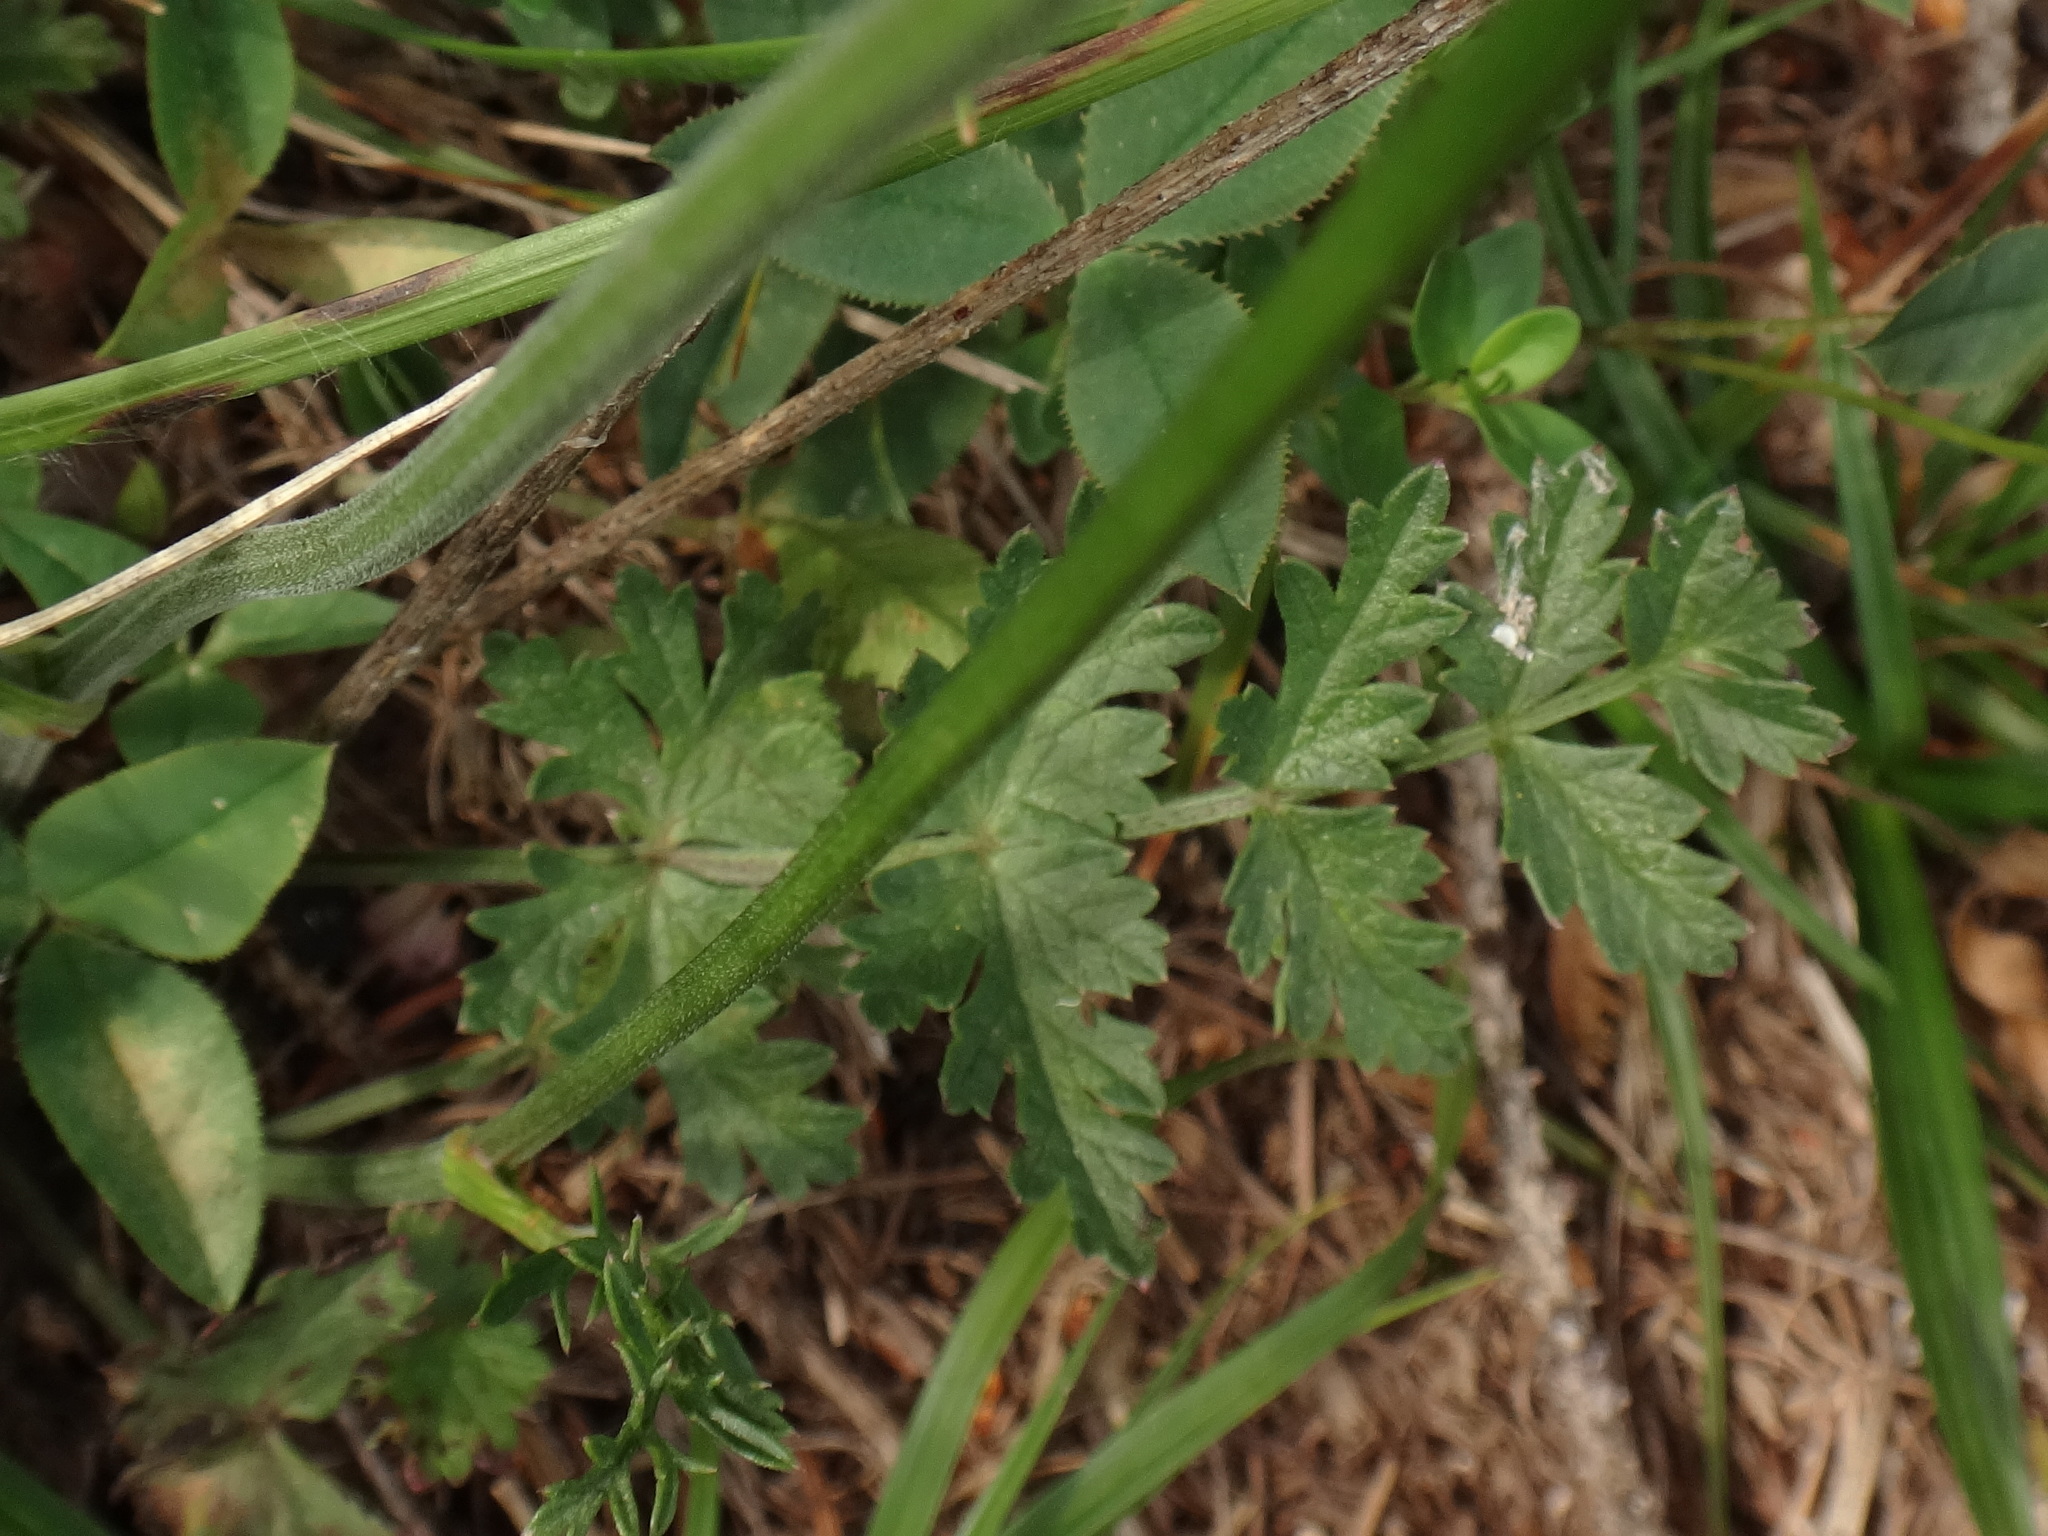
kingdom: Plantae
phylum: Tracheophyta
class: Magnoliopsida
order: Apiales
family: Apiaceae
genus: Pimpinella
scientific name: Pimpinella saxifraga
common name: Burnet-saxifrage
